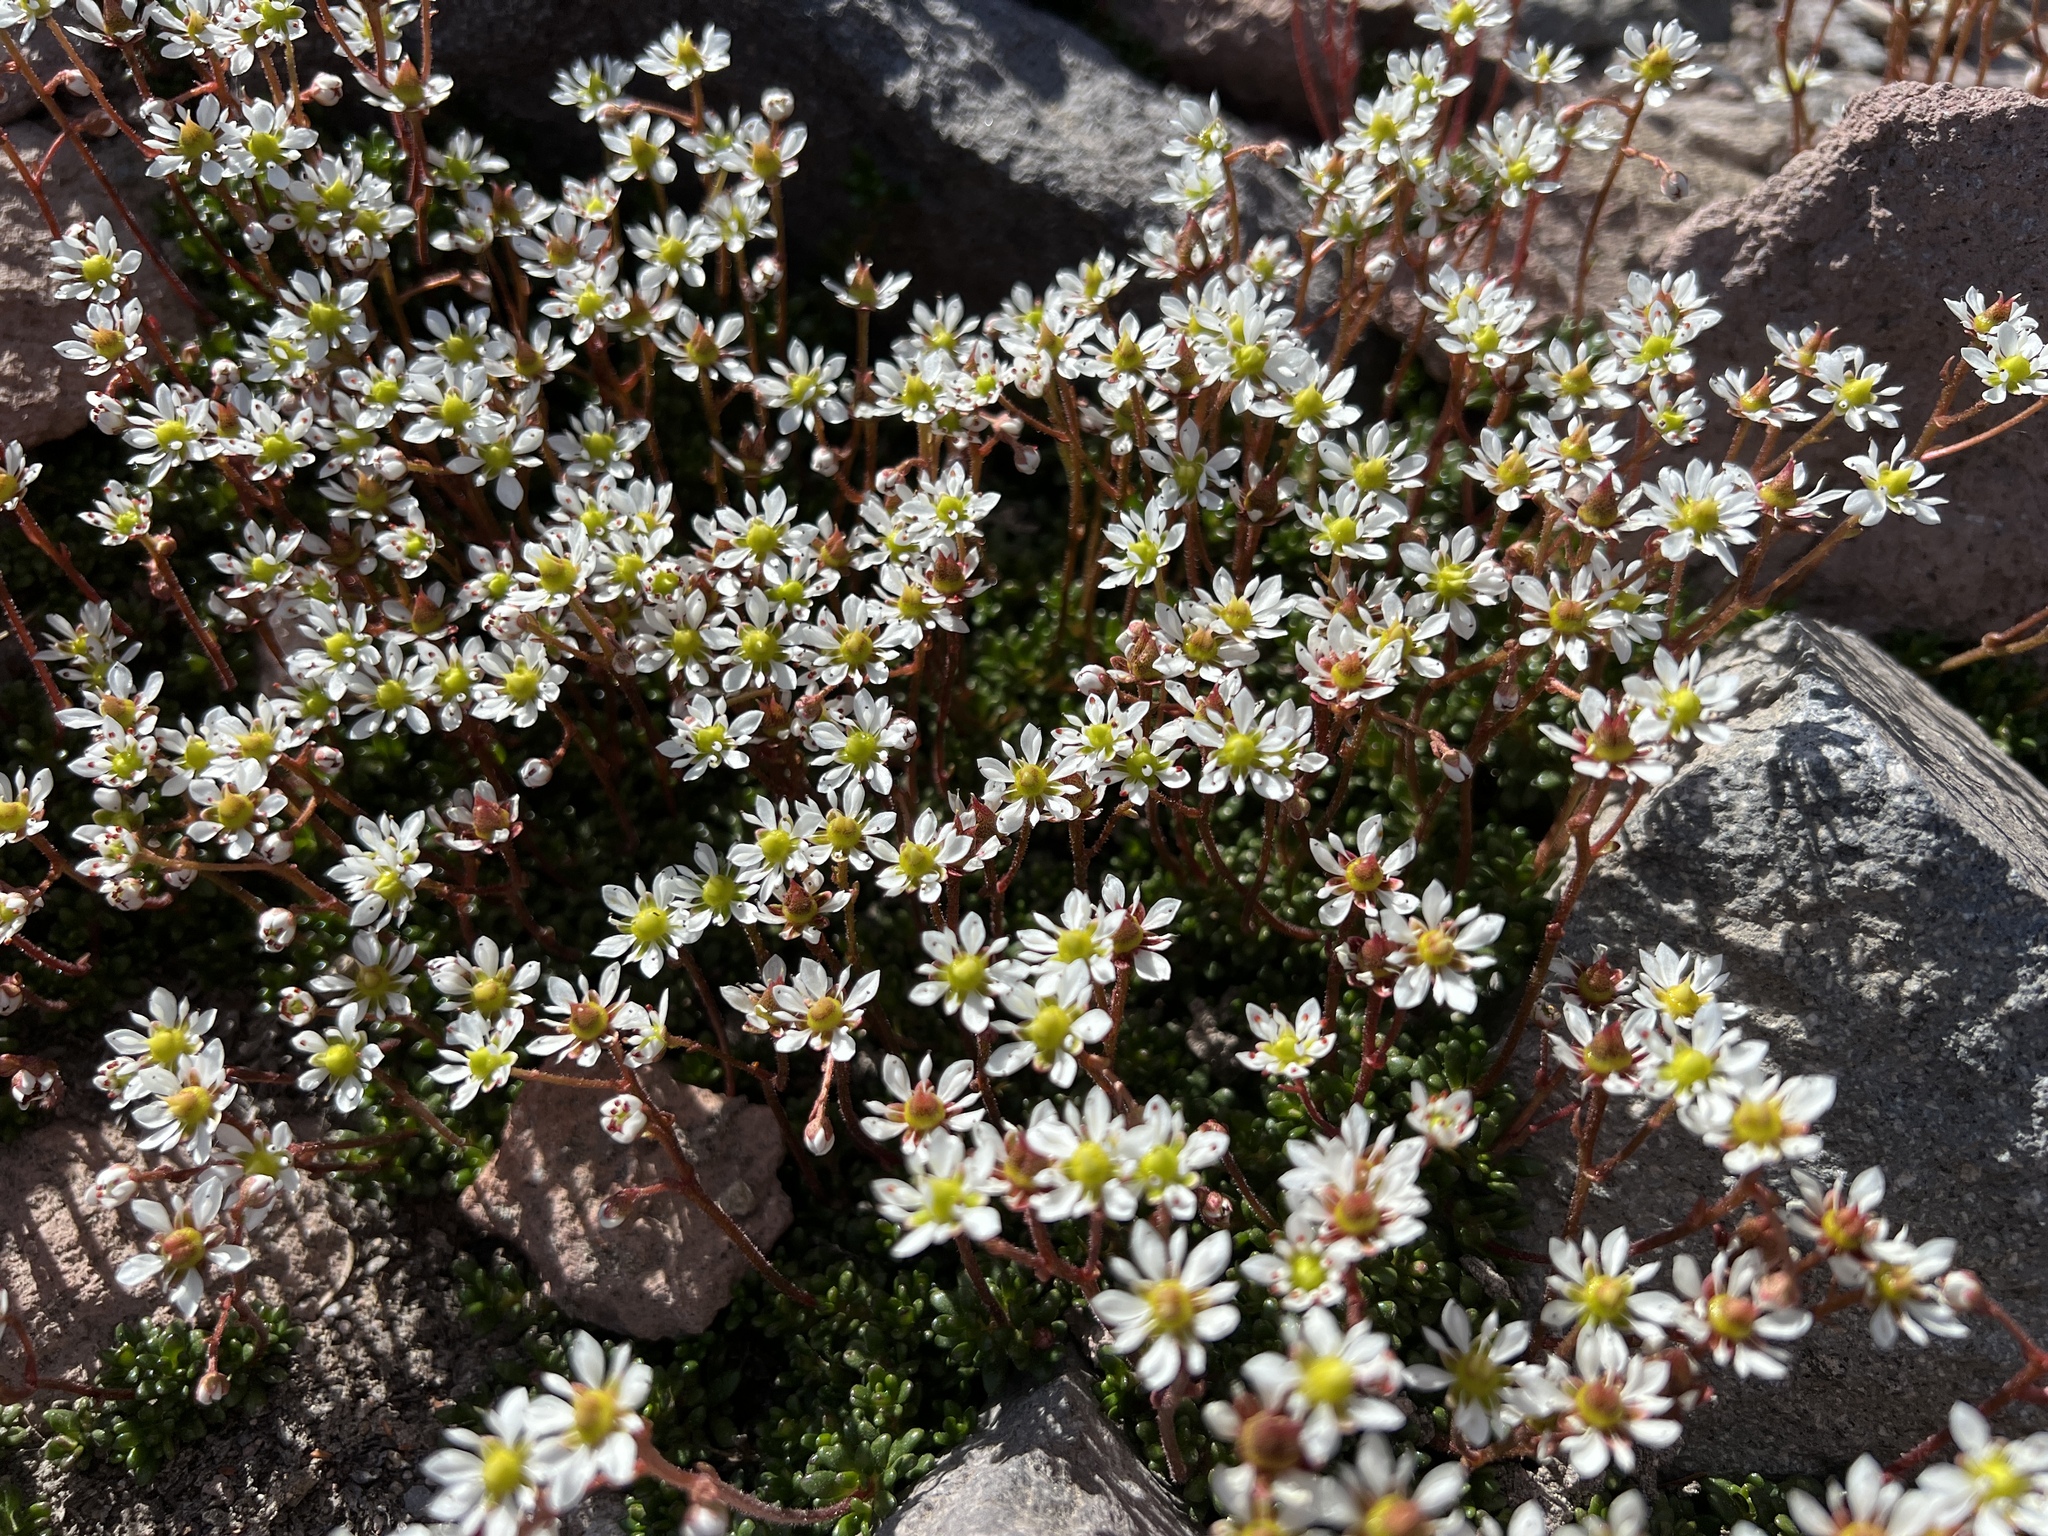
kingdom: Plantae
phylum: Tracheophyta
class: Magnoliopsida
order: Saxifragales
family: Saxifragaceae
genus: Micranthes
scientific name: Micranthes tolmiei
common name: Tolmie's saxifrage
